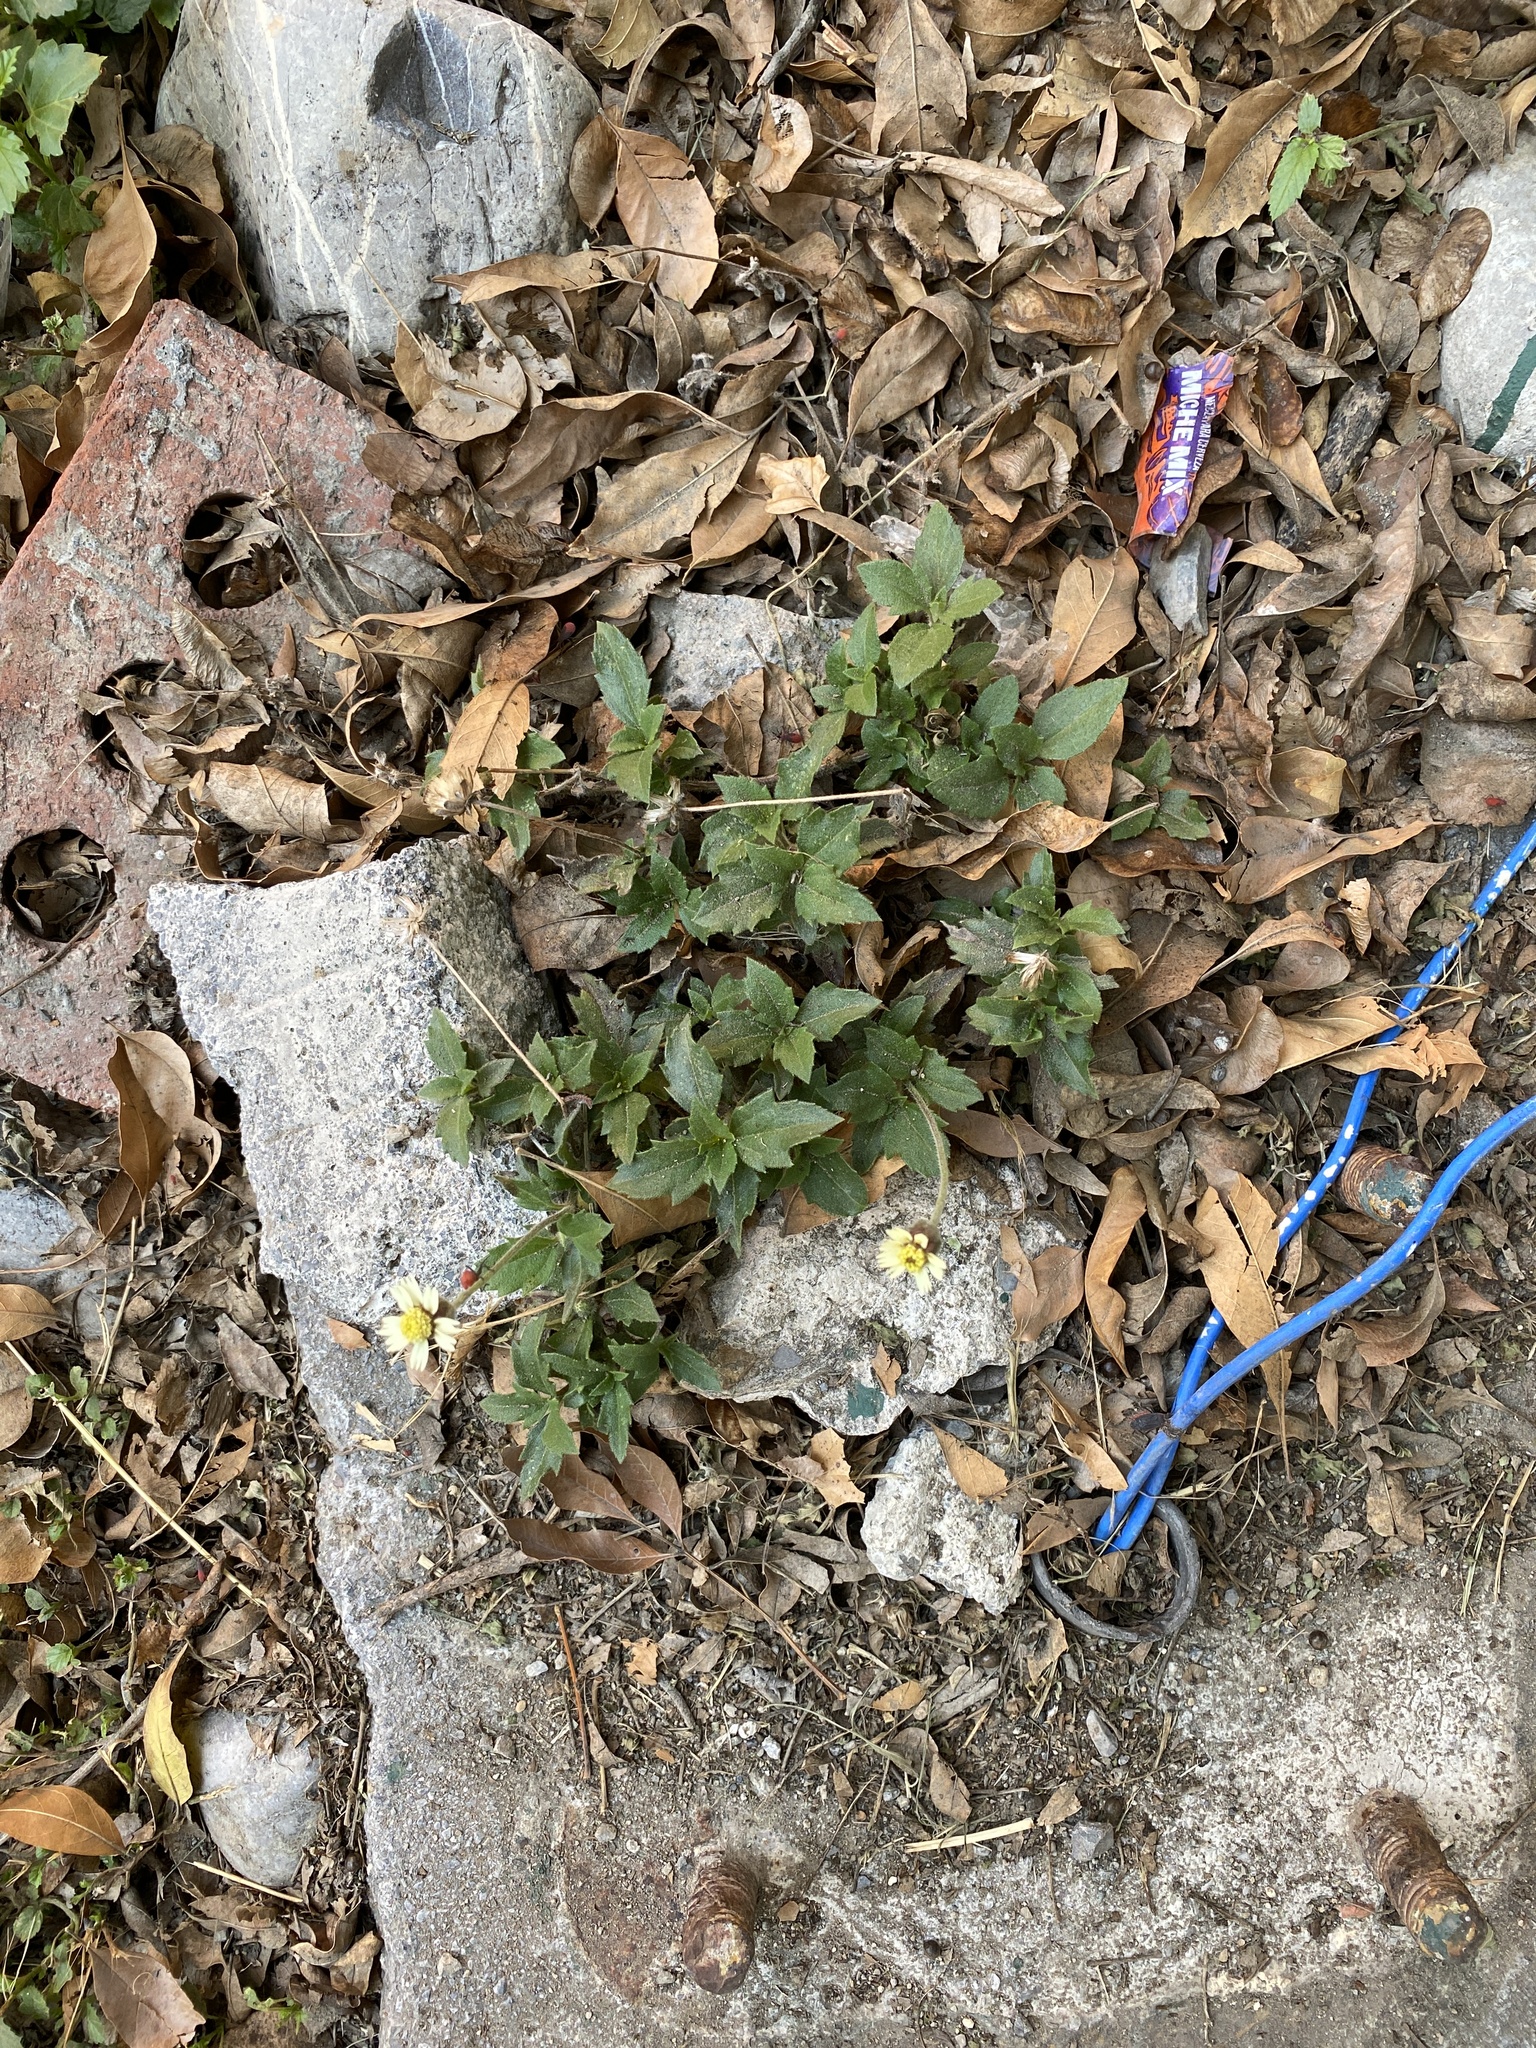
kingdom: Plantae
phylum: Tracheophyta
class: Magnoliopsida
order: Asterales
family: Asteraceae
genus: Tridax
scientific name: Tridax procumbens
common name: Coatbuttons
